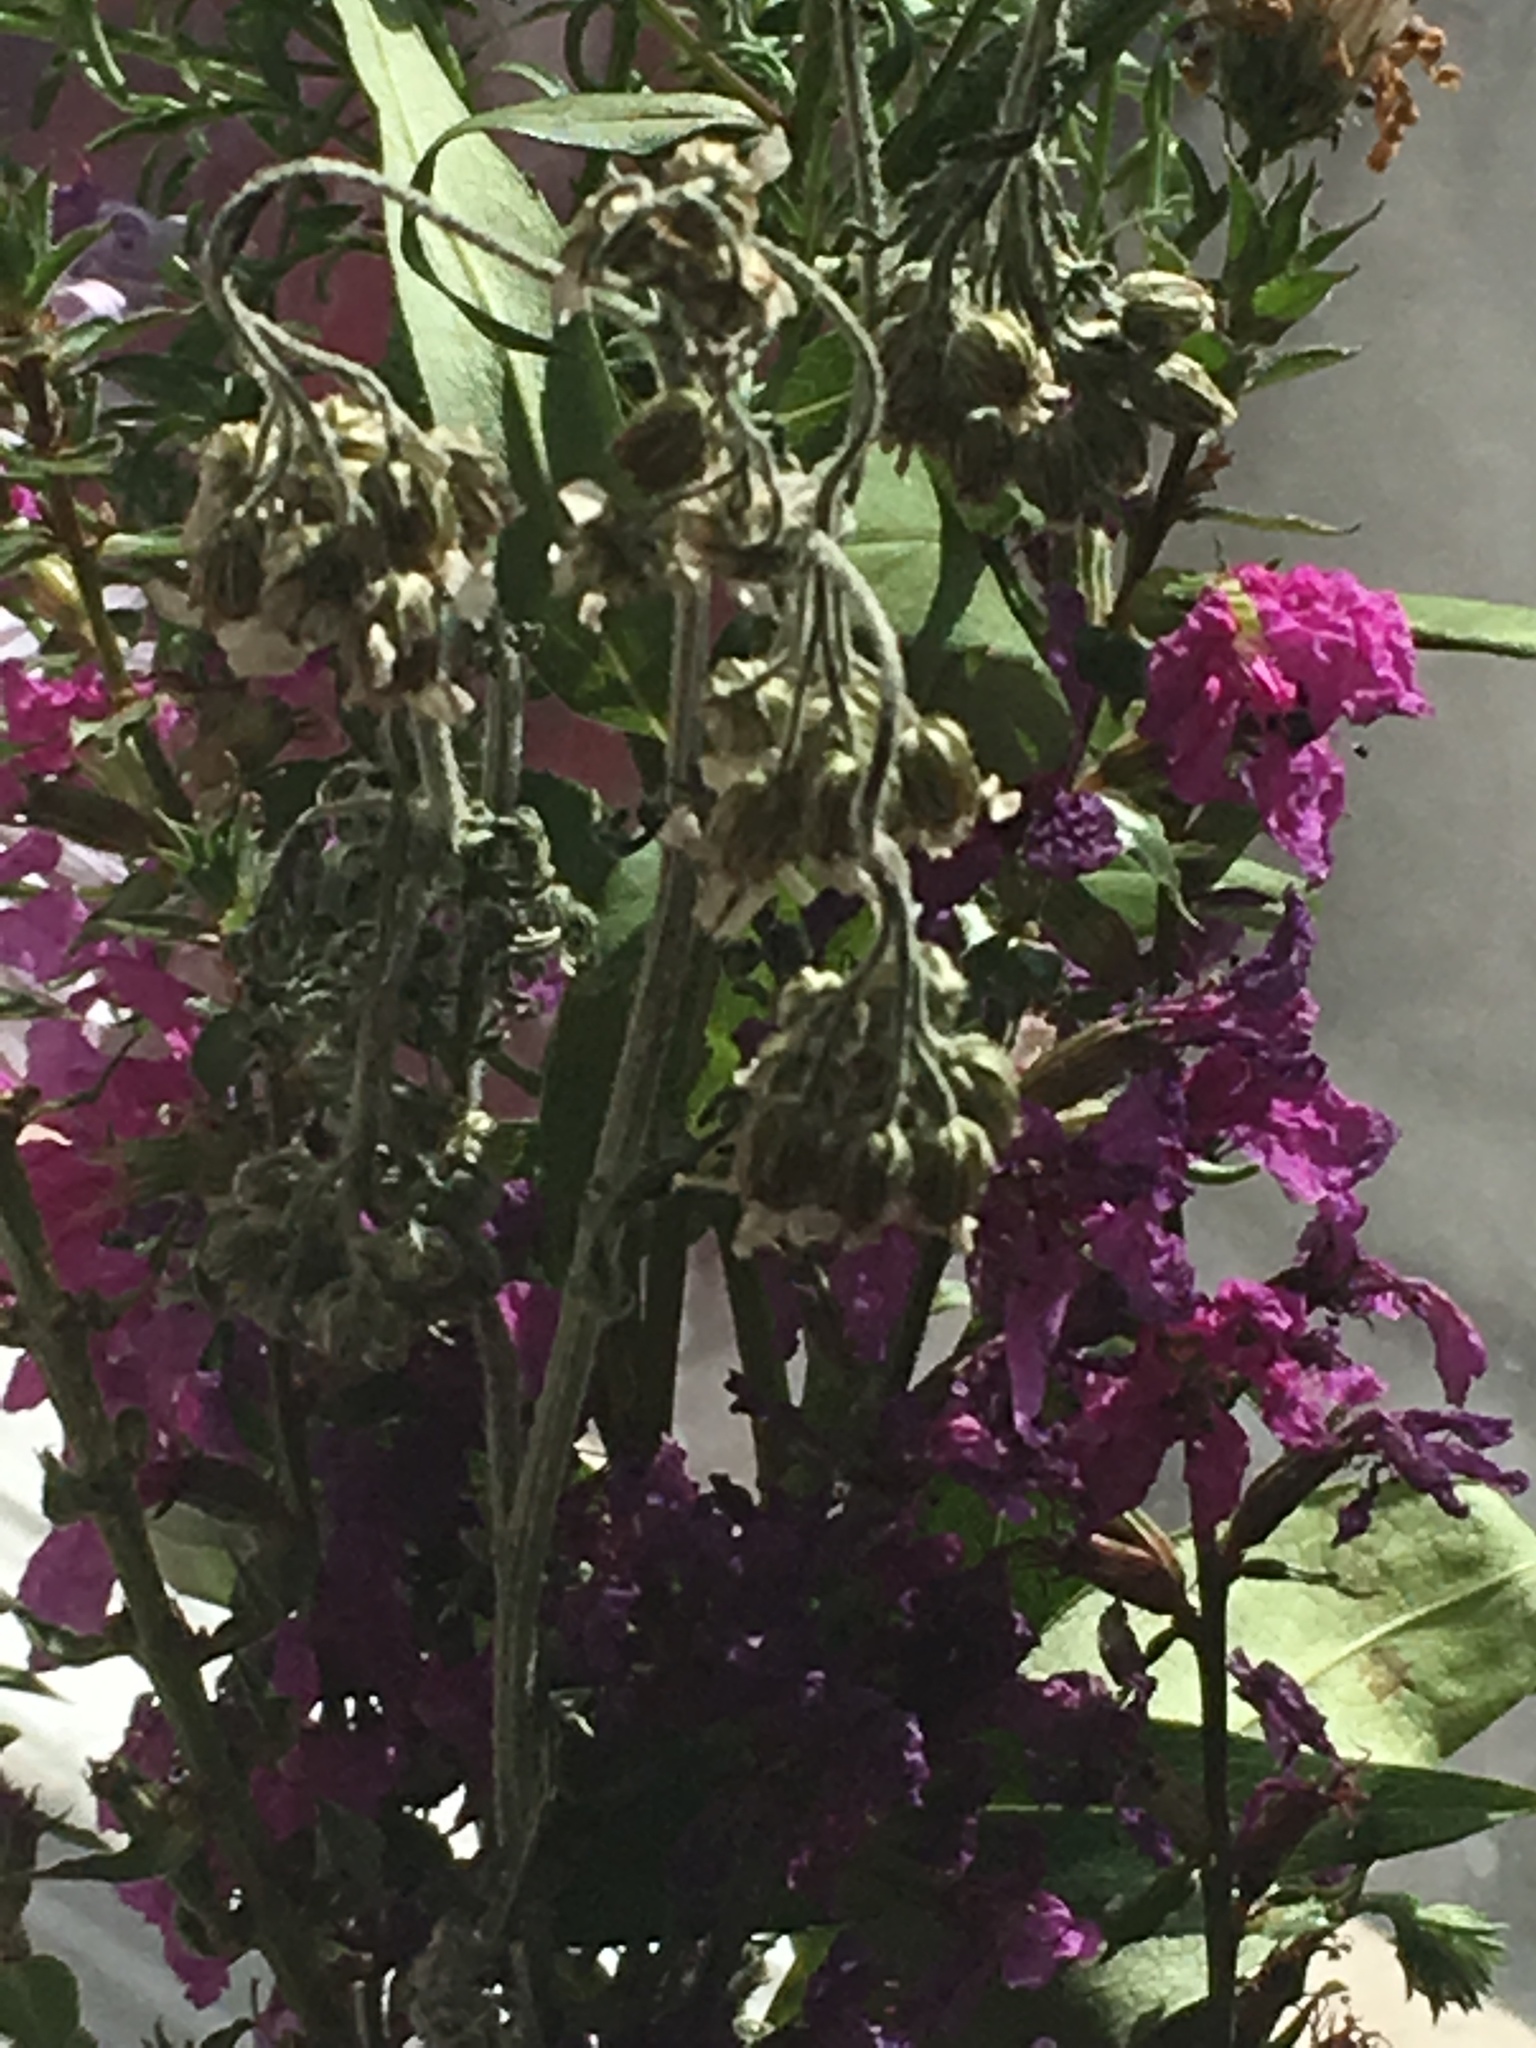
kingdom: Plantae
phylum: Tracheophyta
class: Magnoliopsida
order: Brassicales
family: Brassicaceae
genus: Matthiola
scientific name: Matthiola incana
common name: Hoary stock
